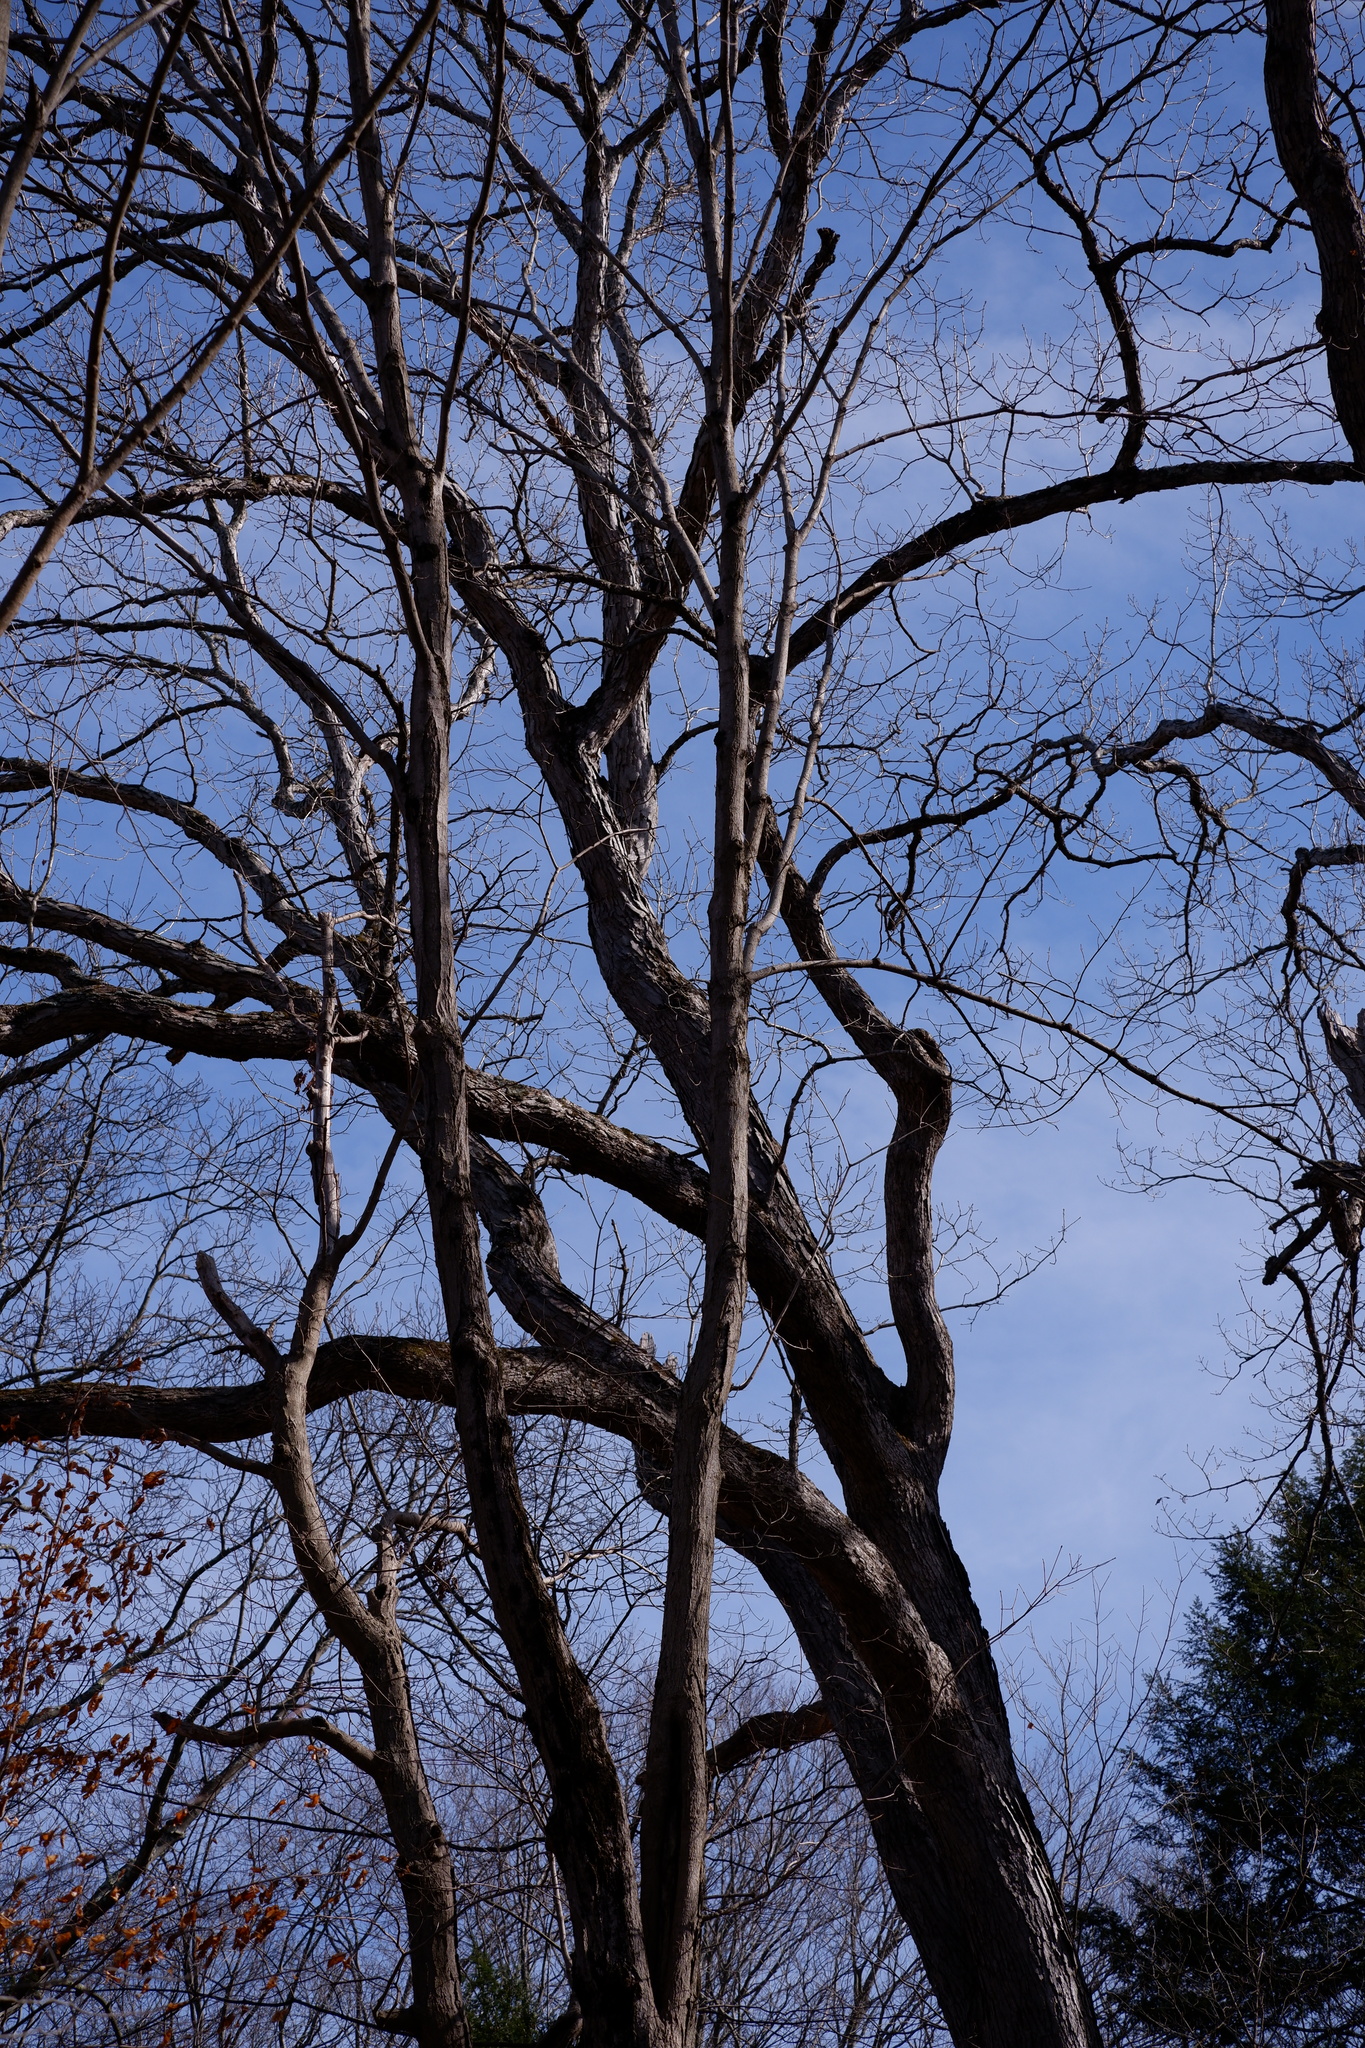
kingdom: Plantae
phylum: Tracheophyta
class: Magnoliopsida
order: Fagales
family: Fagaceae
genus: Quercus
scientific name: Quercus alba
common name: White oak
